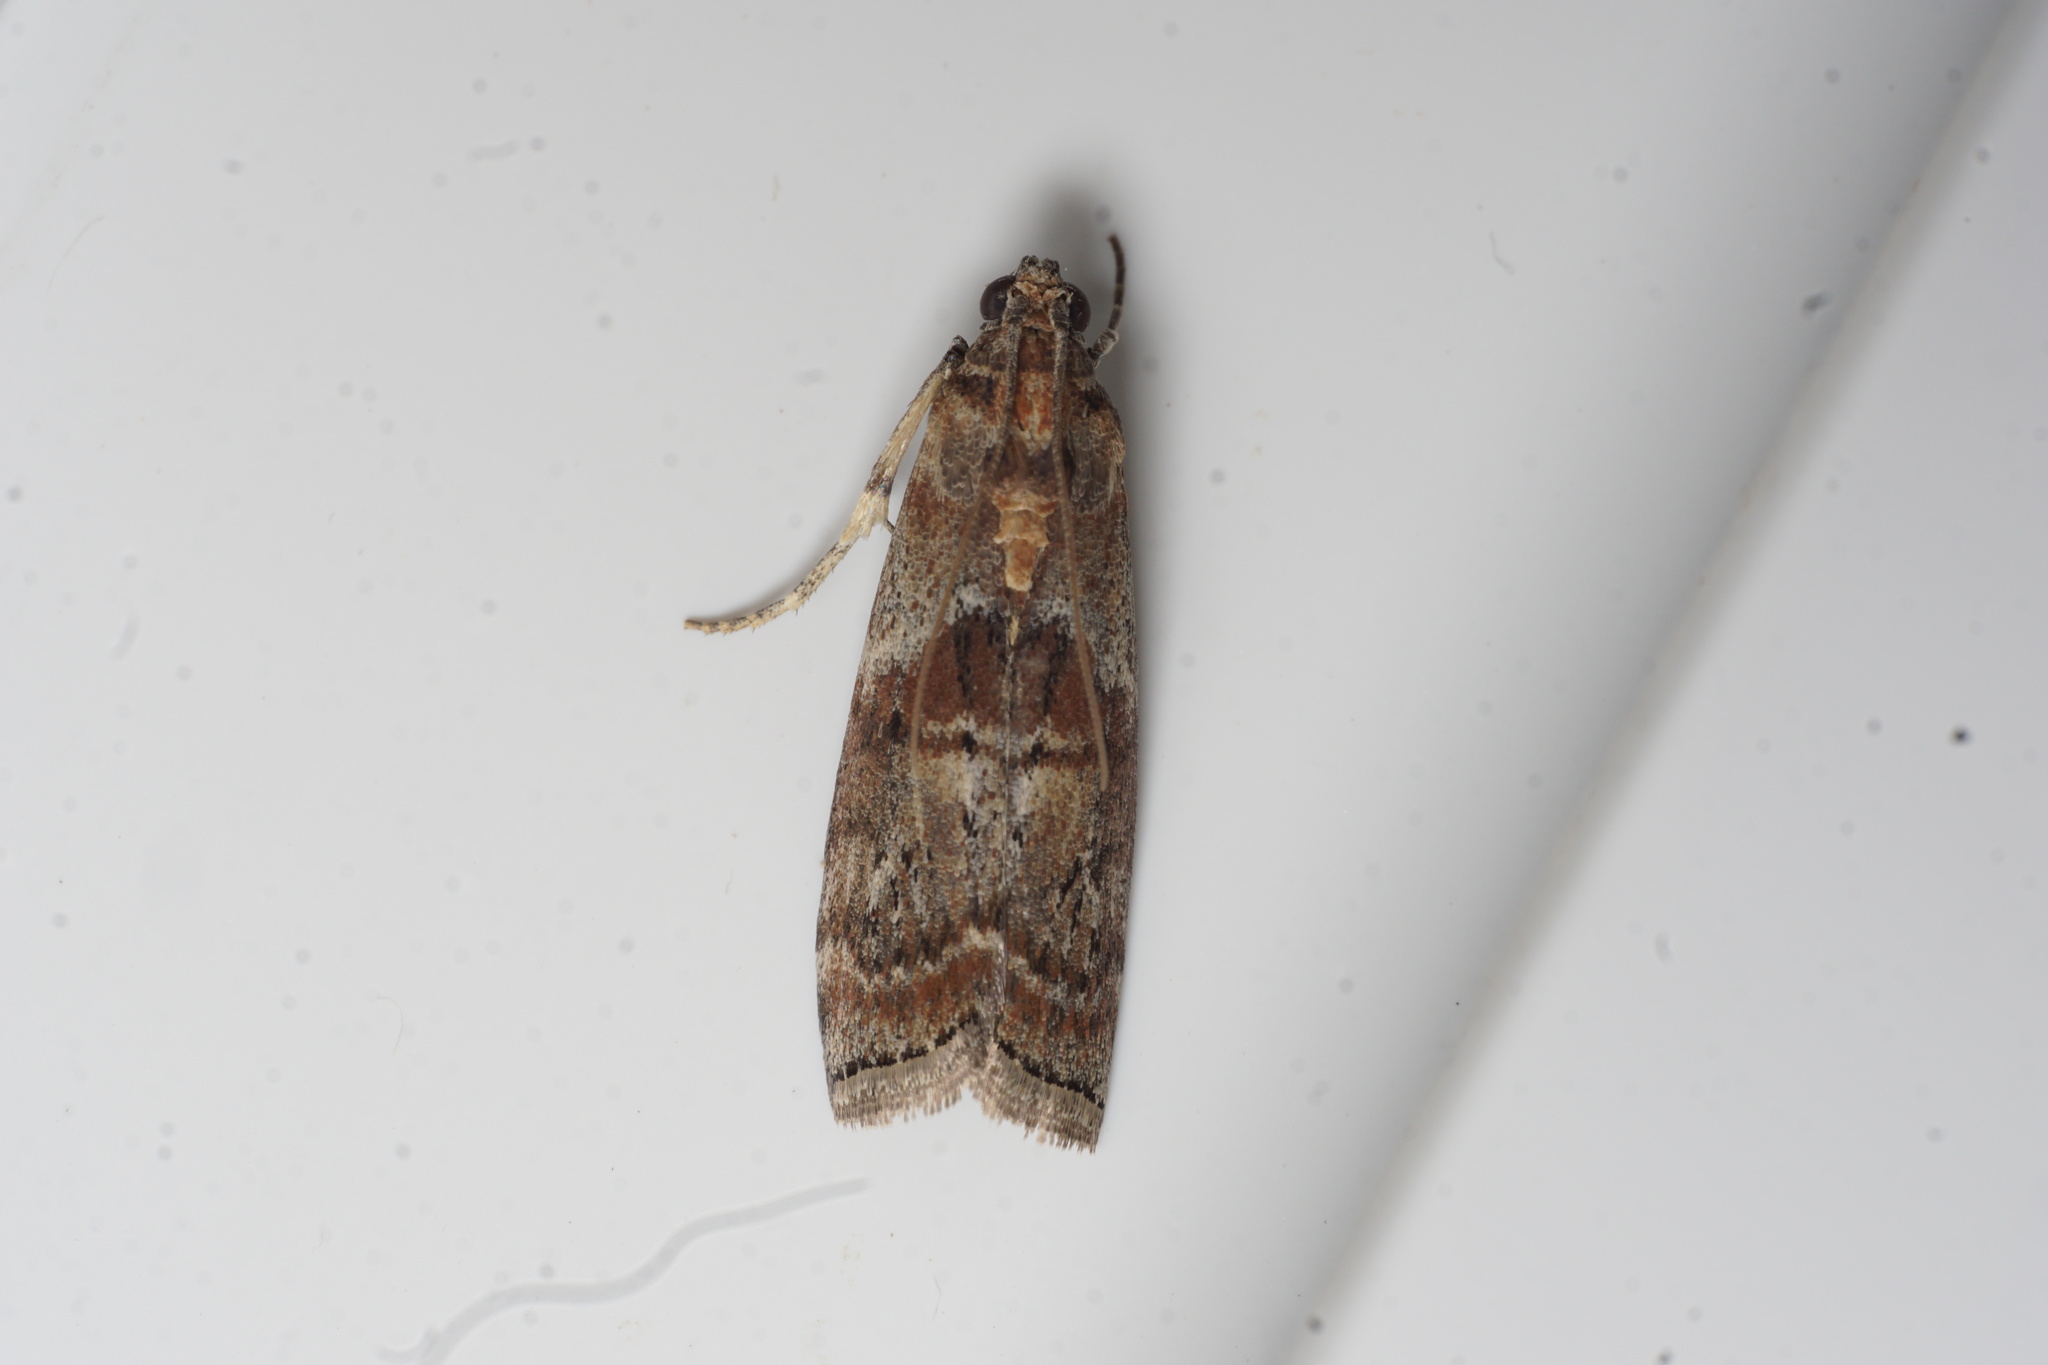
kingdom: Animalia
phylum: Arthropoda
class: Insecta
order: Lepidoptera
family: Pyralidae
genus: Phycita
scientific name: Phycita roborella
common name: Dotted oak knot-horn
